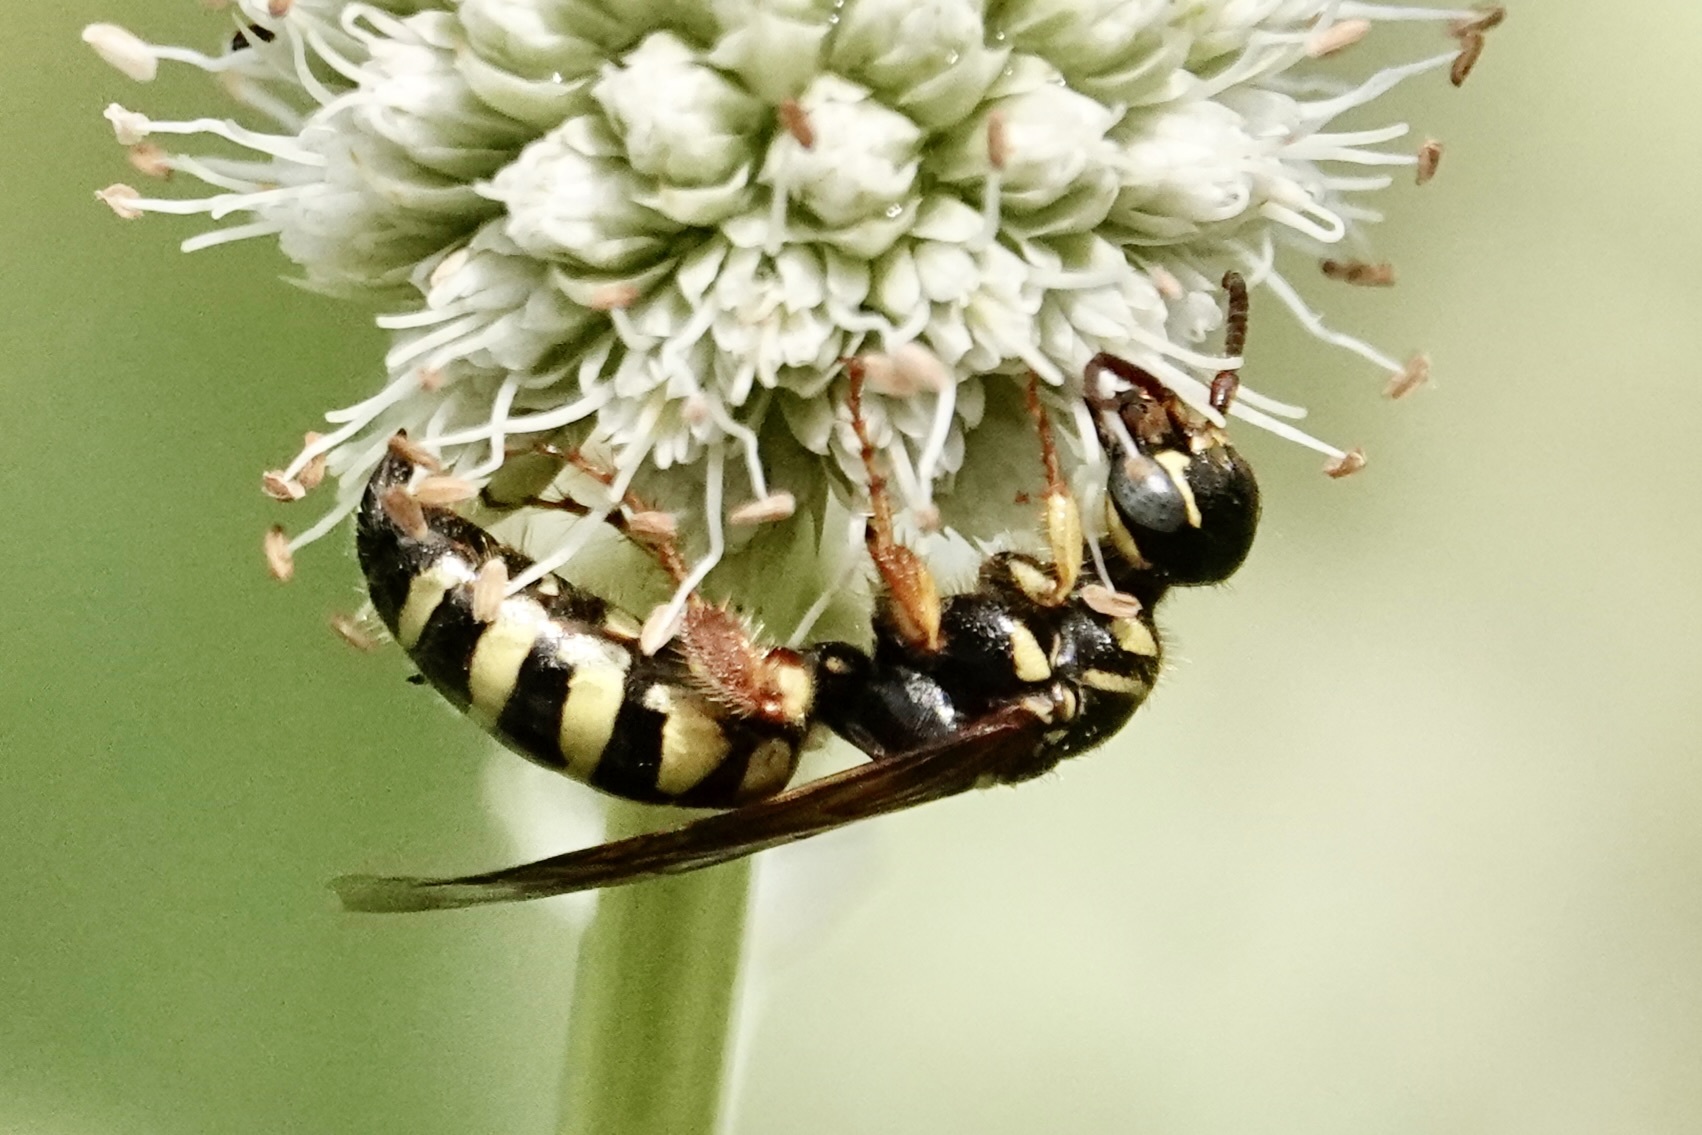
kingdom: Animalia
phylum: Arthropoda
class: Insecta
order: Hymenoptera
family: Tiphiidae
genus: Myzinum
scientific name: Myzinum quinquecinctum
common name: Five-banded thynnid wasp
